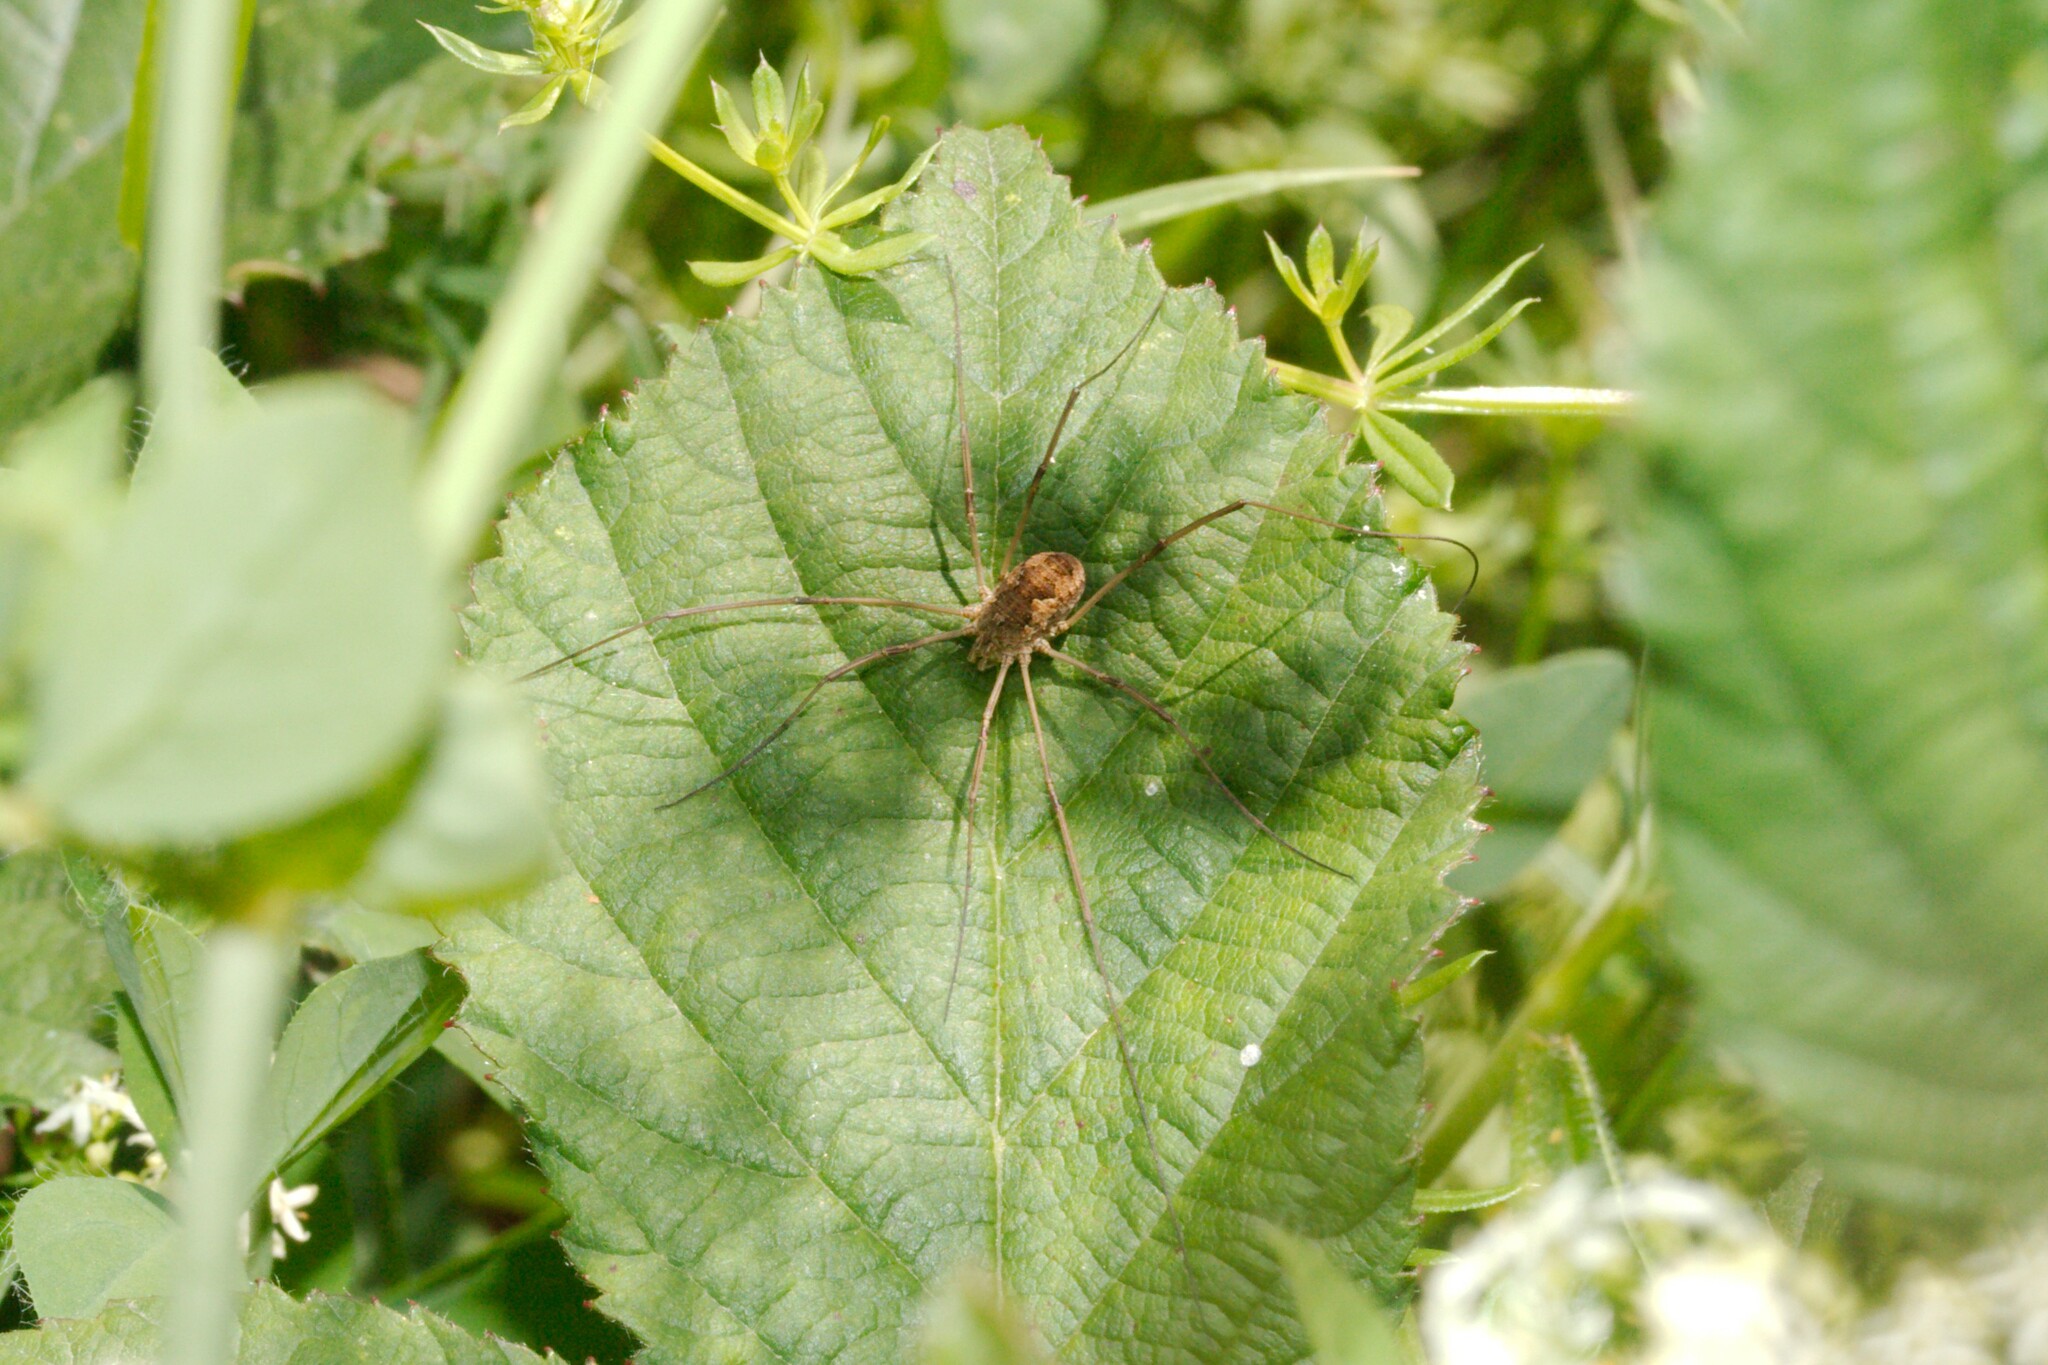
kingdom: Animalia
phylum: Arthropoda
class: Arachnida
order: Opiliones
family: Phalangiidae
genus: Phalangium
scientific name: Phalangium opilio
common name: Daddy longleg
